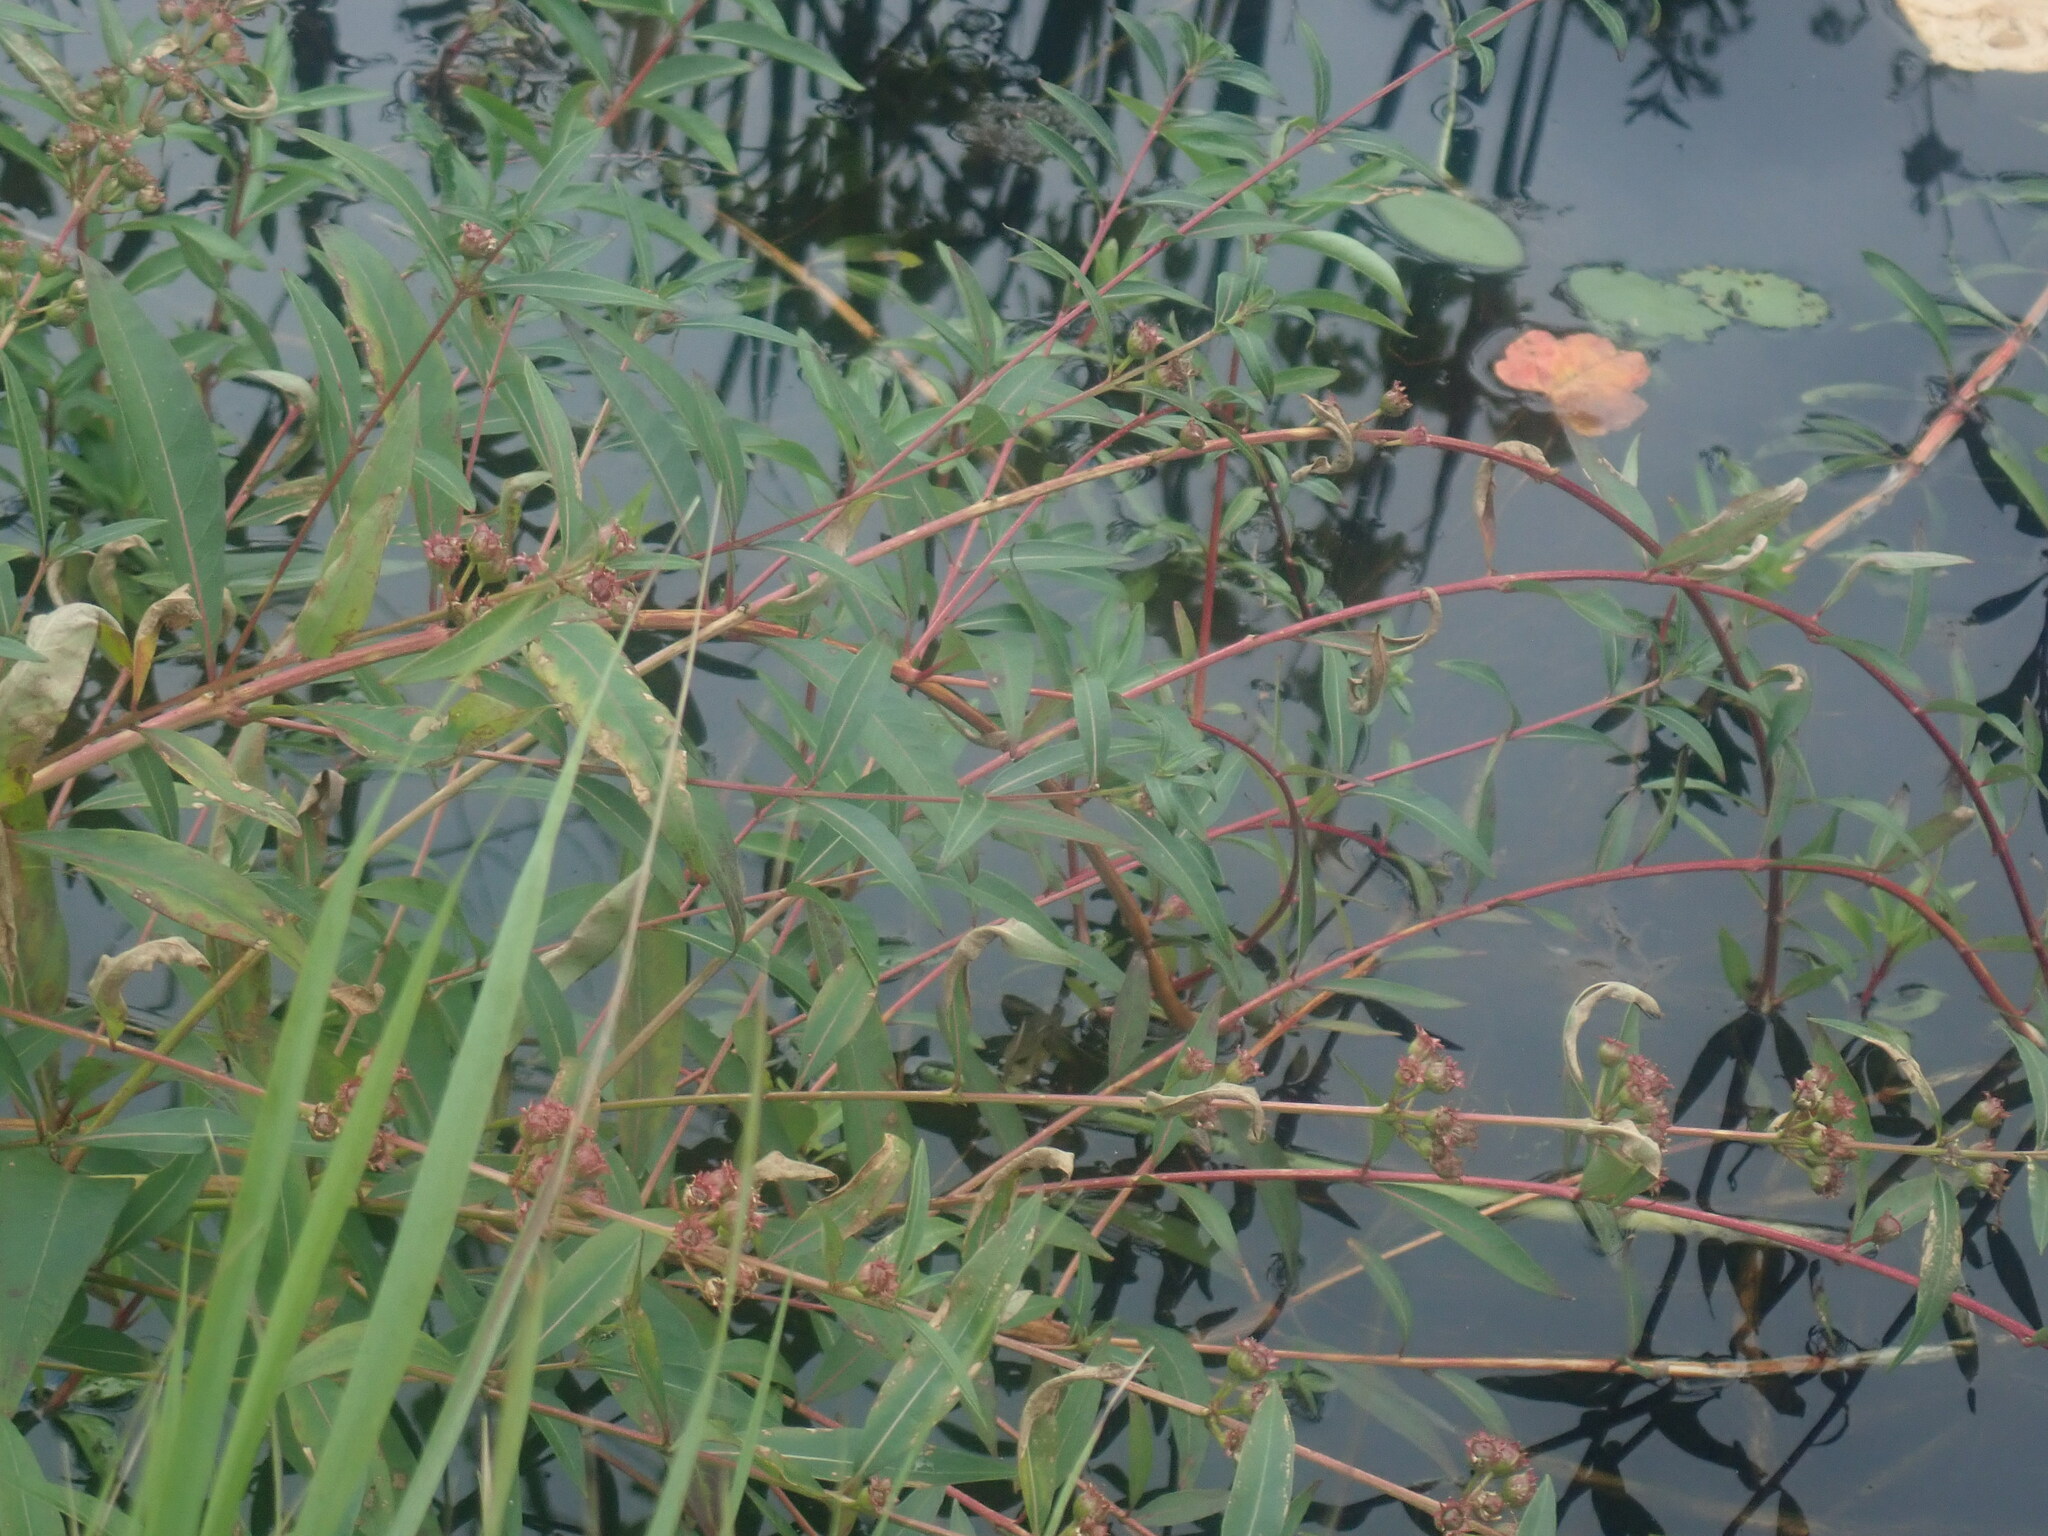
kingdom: Plantae
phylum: Tracheophyta
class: Magnoliopsida
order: Myrtales
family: Lythraceae
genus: Decodon
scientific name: Decodon verticillatus
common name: Hairy swamp loosestrife
